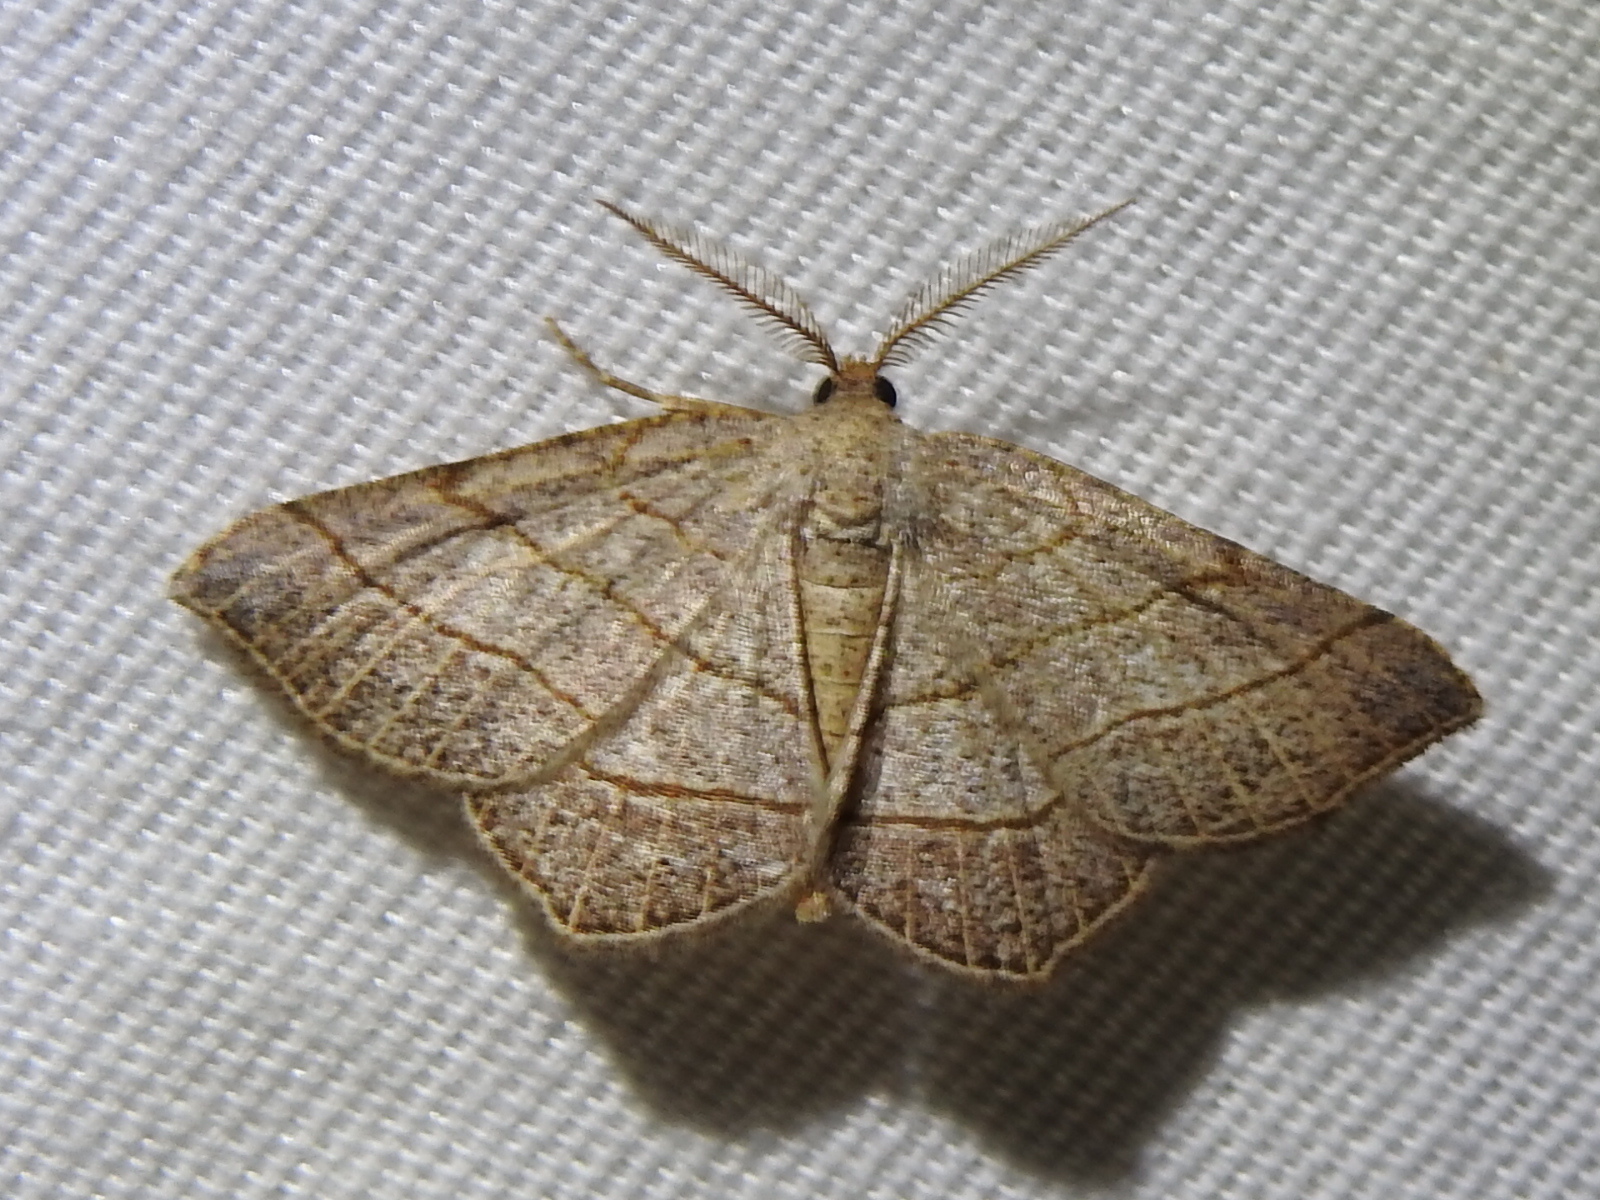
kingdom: Animalia
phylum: Arthropoda
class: Insecta
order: Lepidoptera
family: Geometridae
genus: Eumacaria
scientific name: Eumacaria madopata
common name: Brown-bordered geometer
